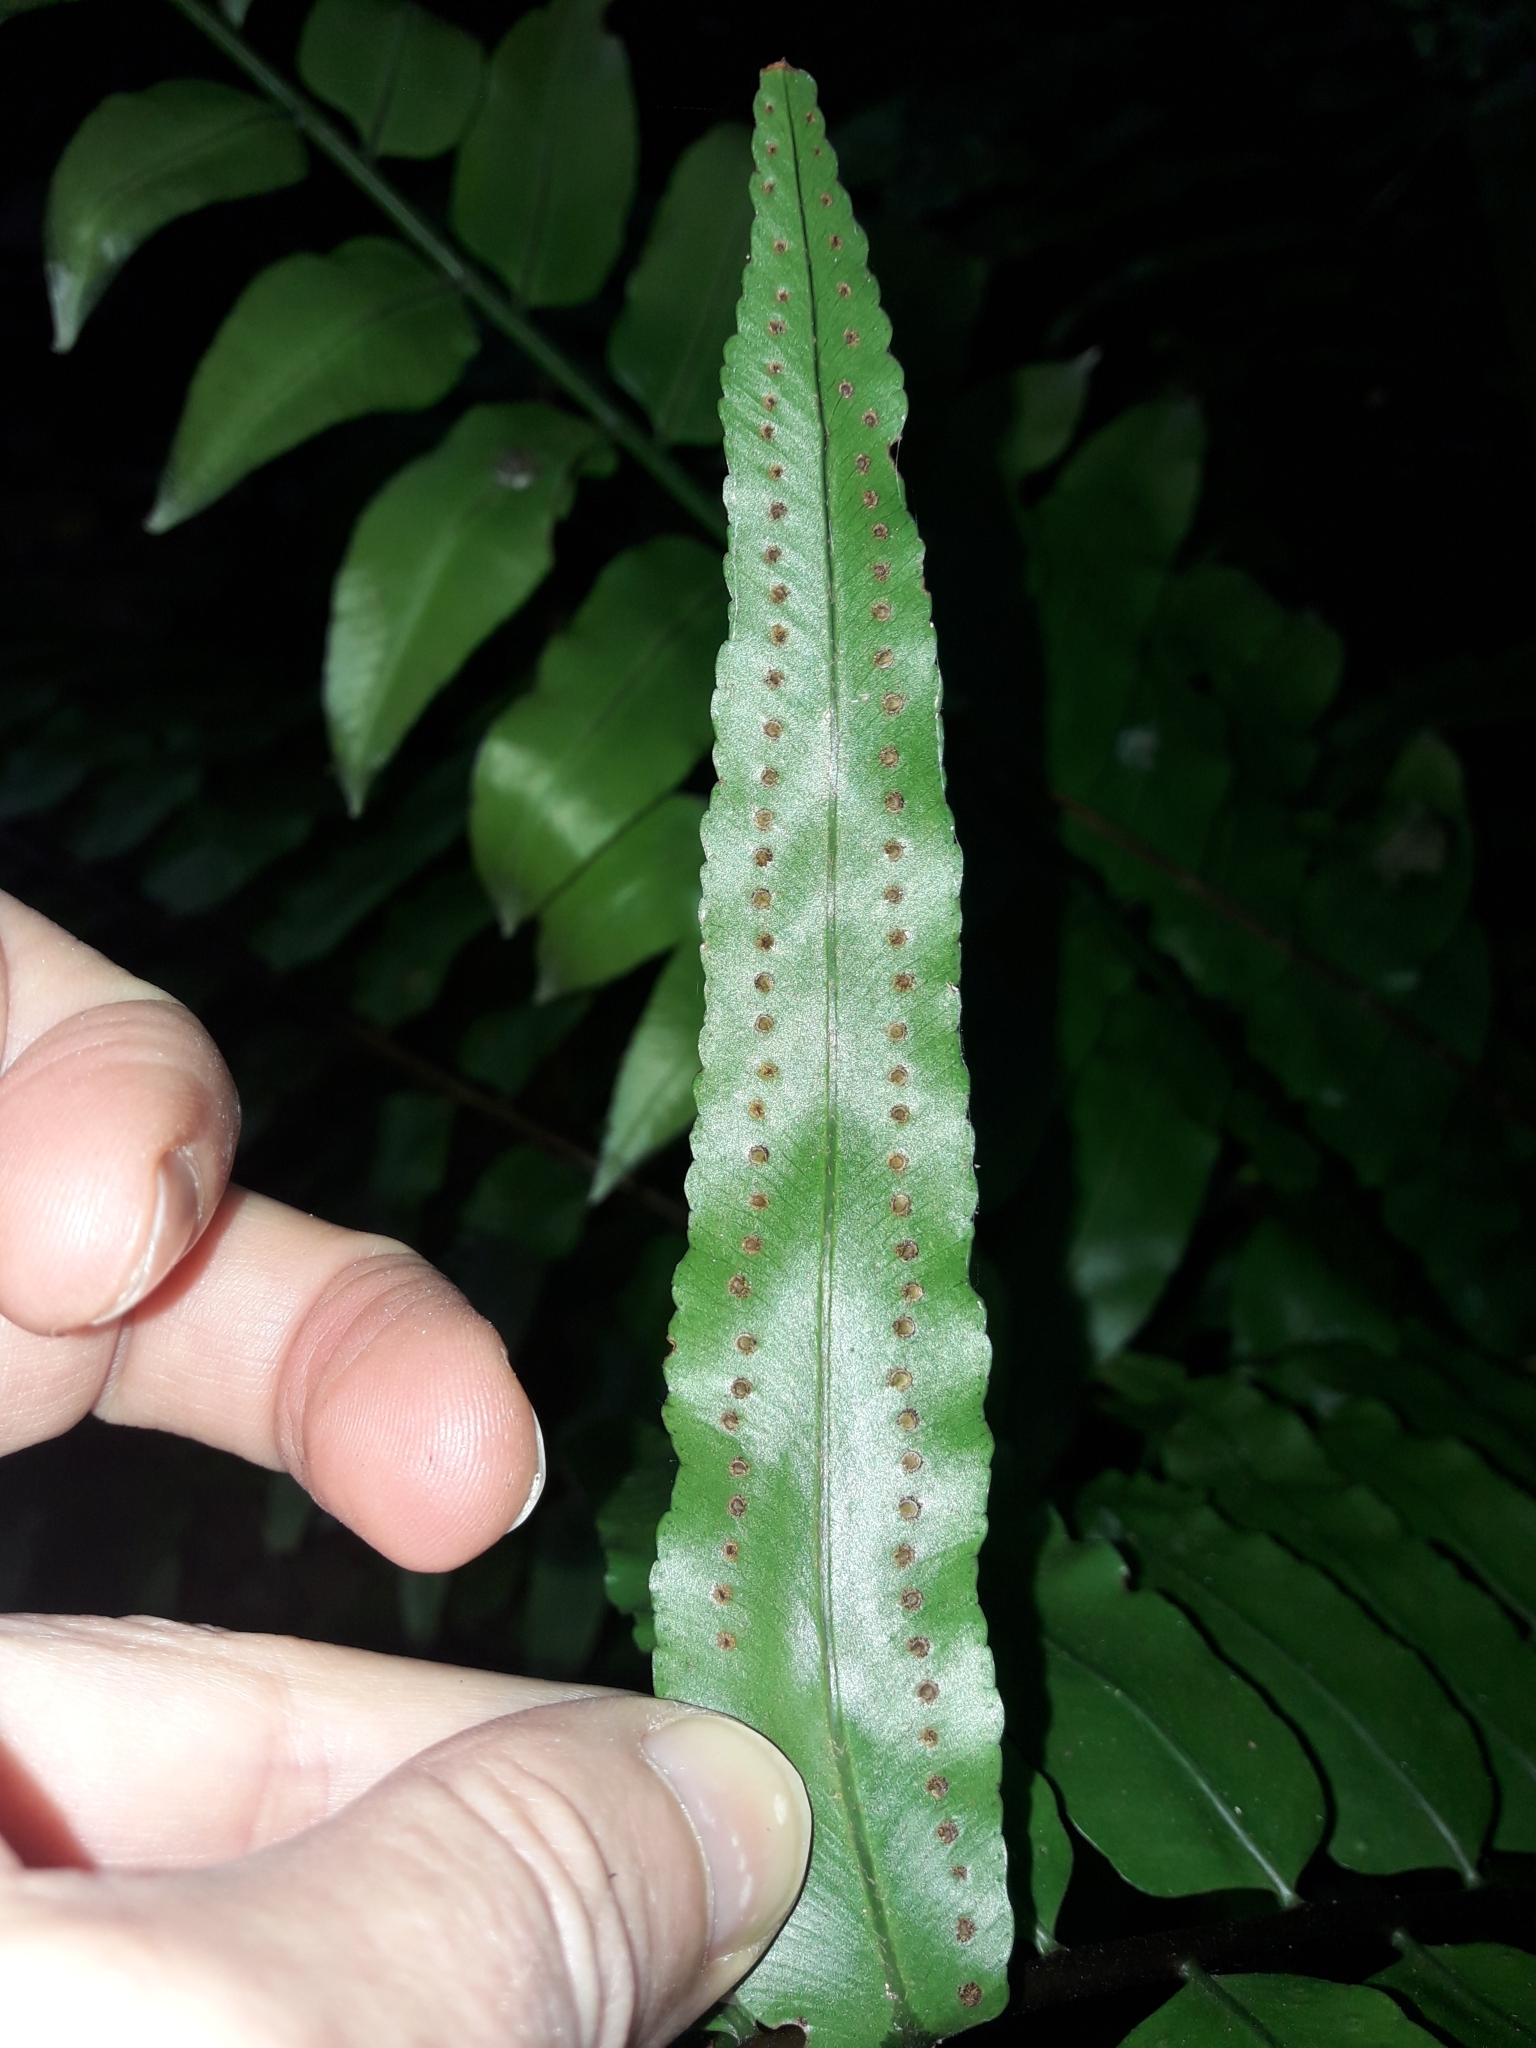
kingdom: Plantae
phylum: Tracheophyta
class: Polypodiopsida
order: Polypodiales
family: Nephrolepidaceae
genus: Nephrolepis
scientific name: Nephrolepis biserrata
